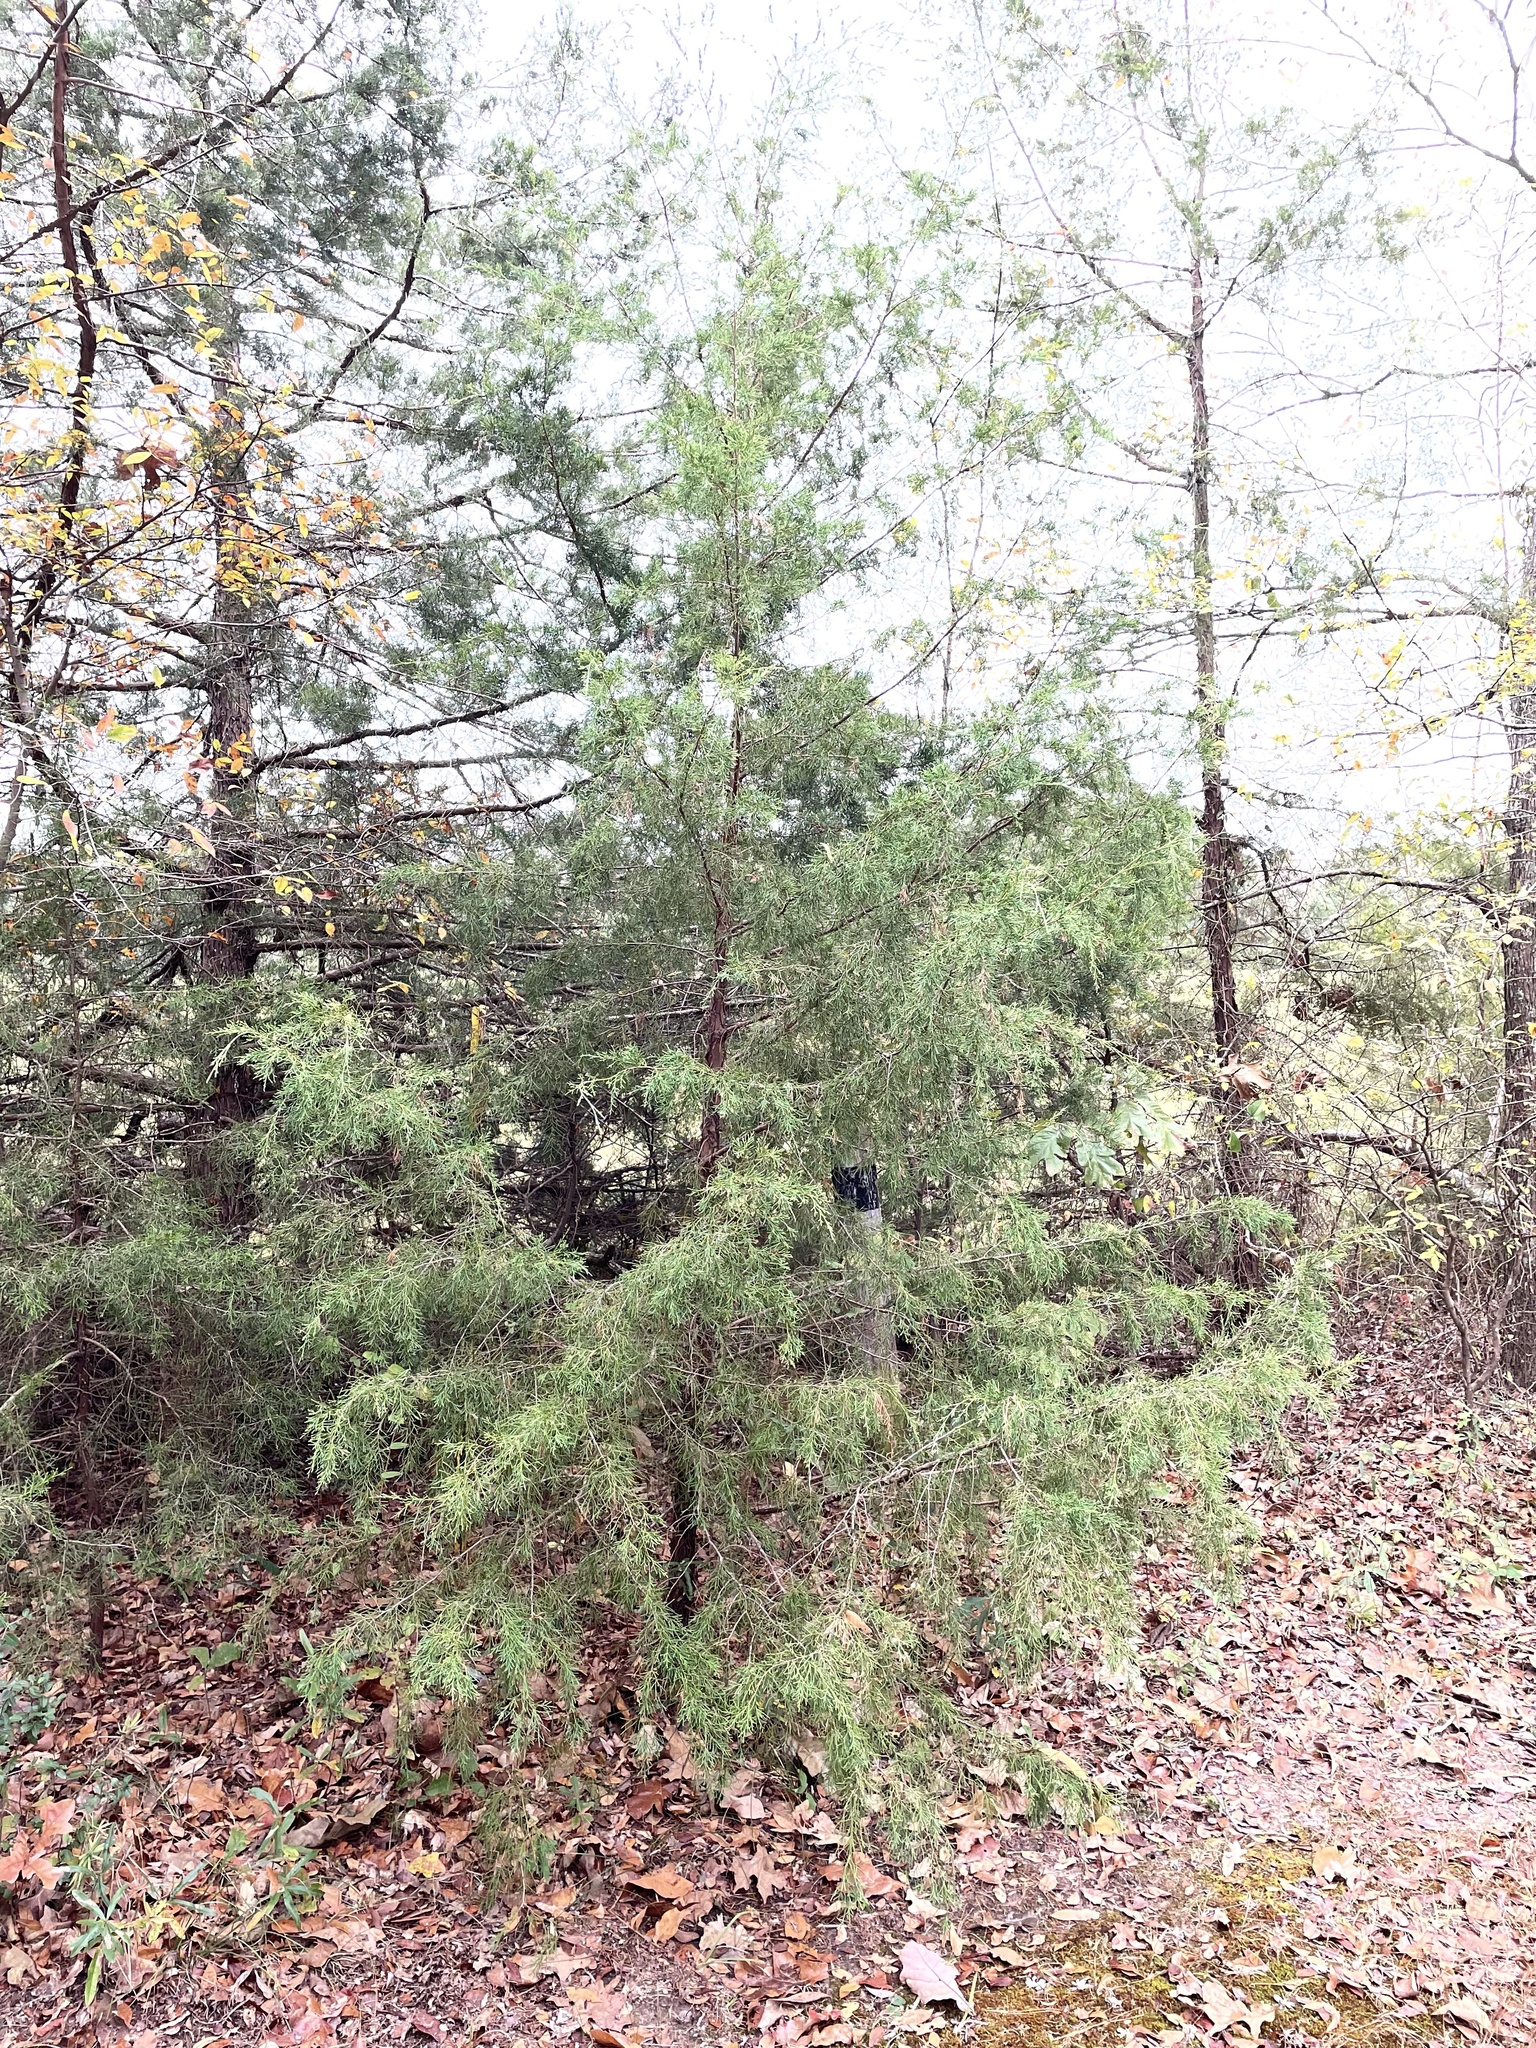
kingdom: Plantae
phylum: Tracheophyta
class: Pinopsida
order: Pinales
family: Cupressaceae
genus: Juniperus
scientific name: Juniperus virginiana
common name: Red juniper
